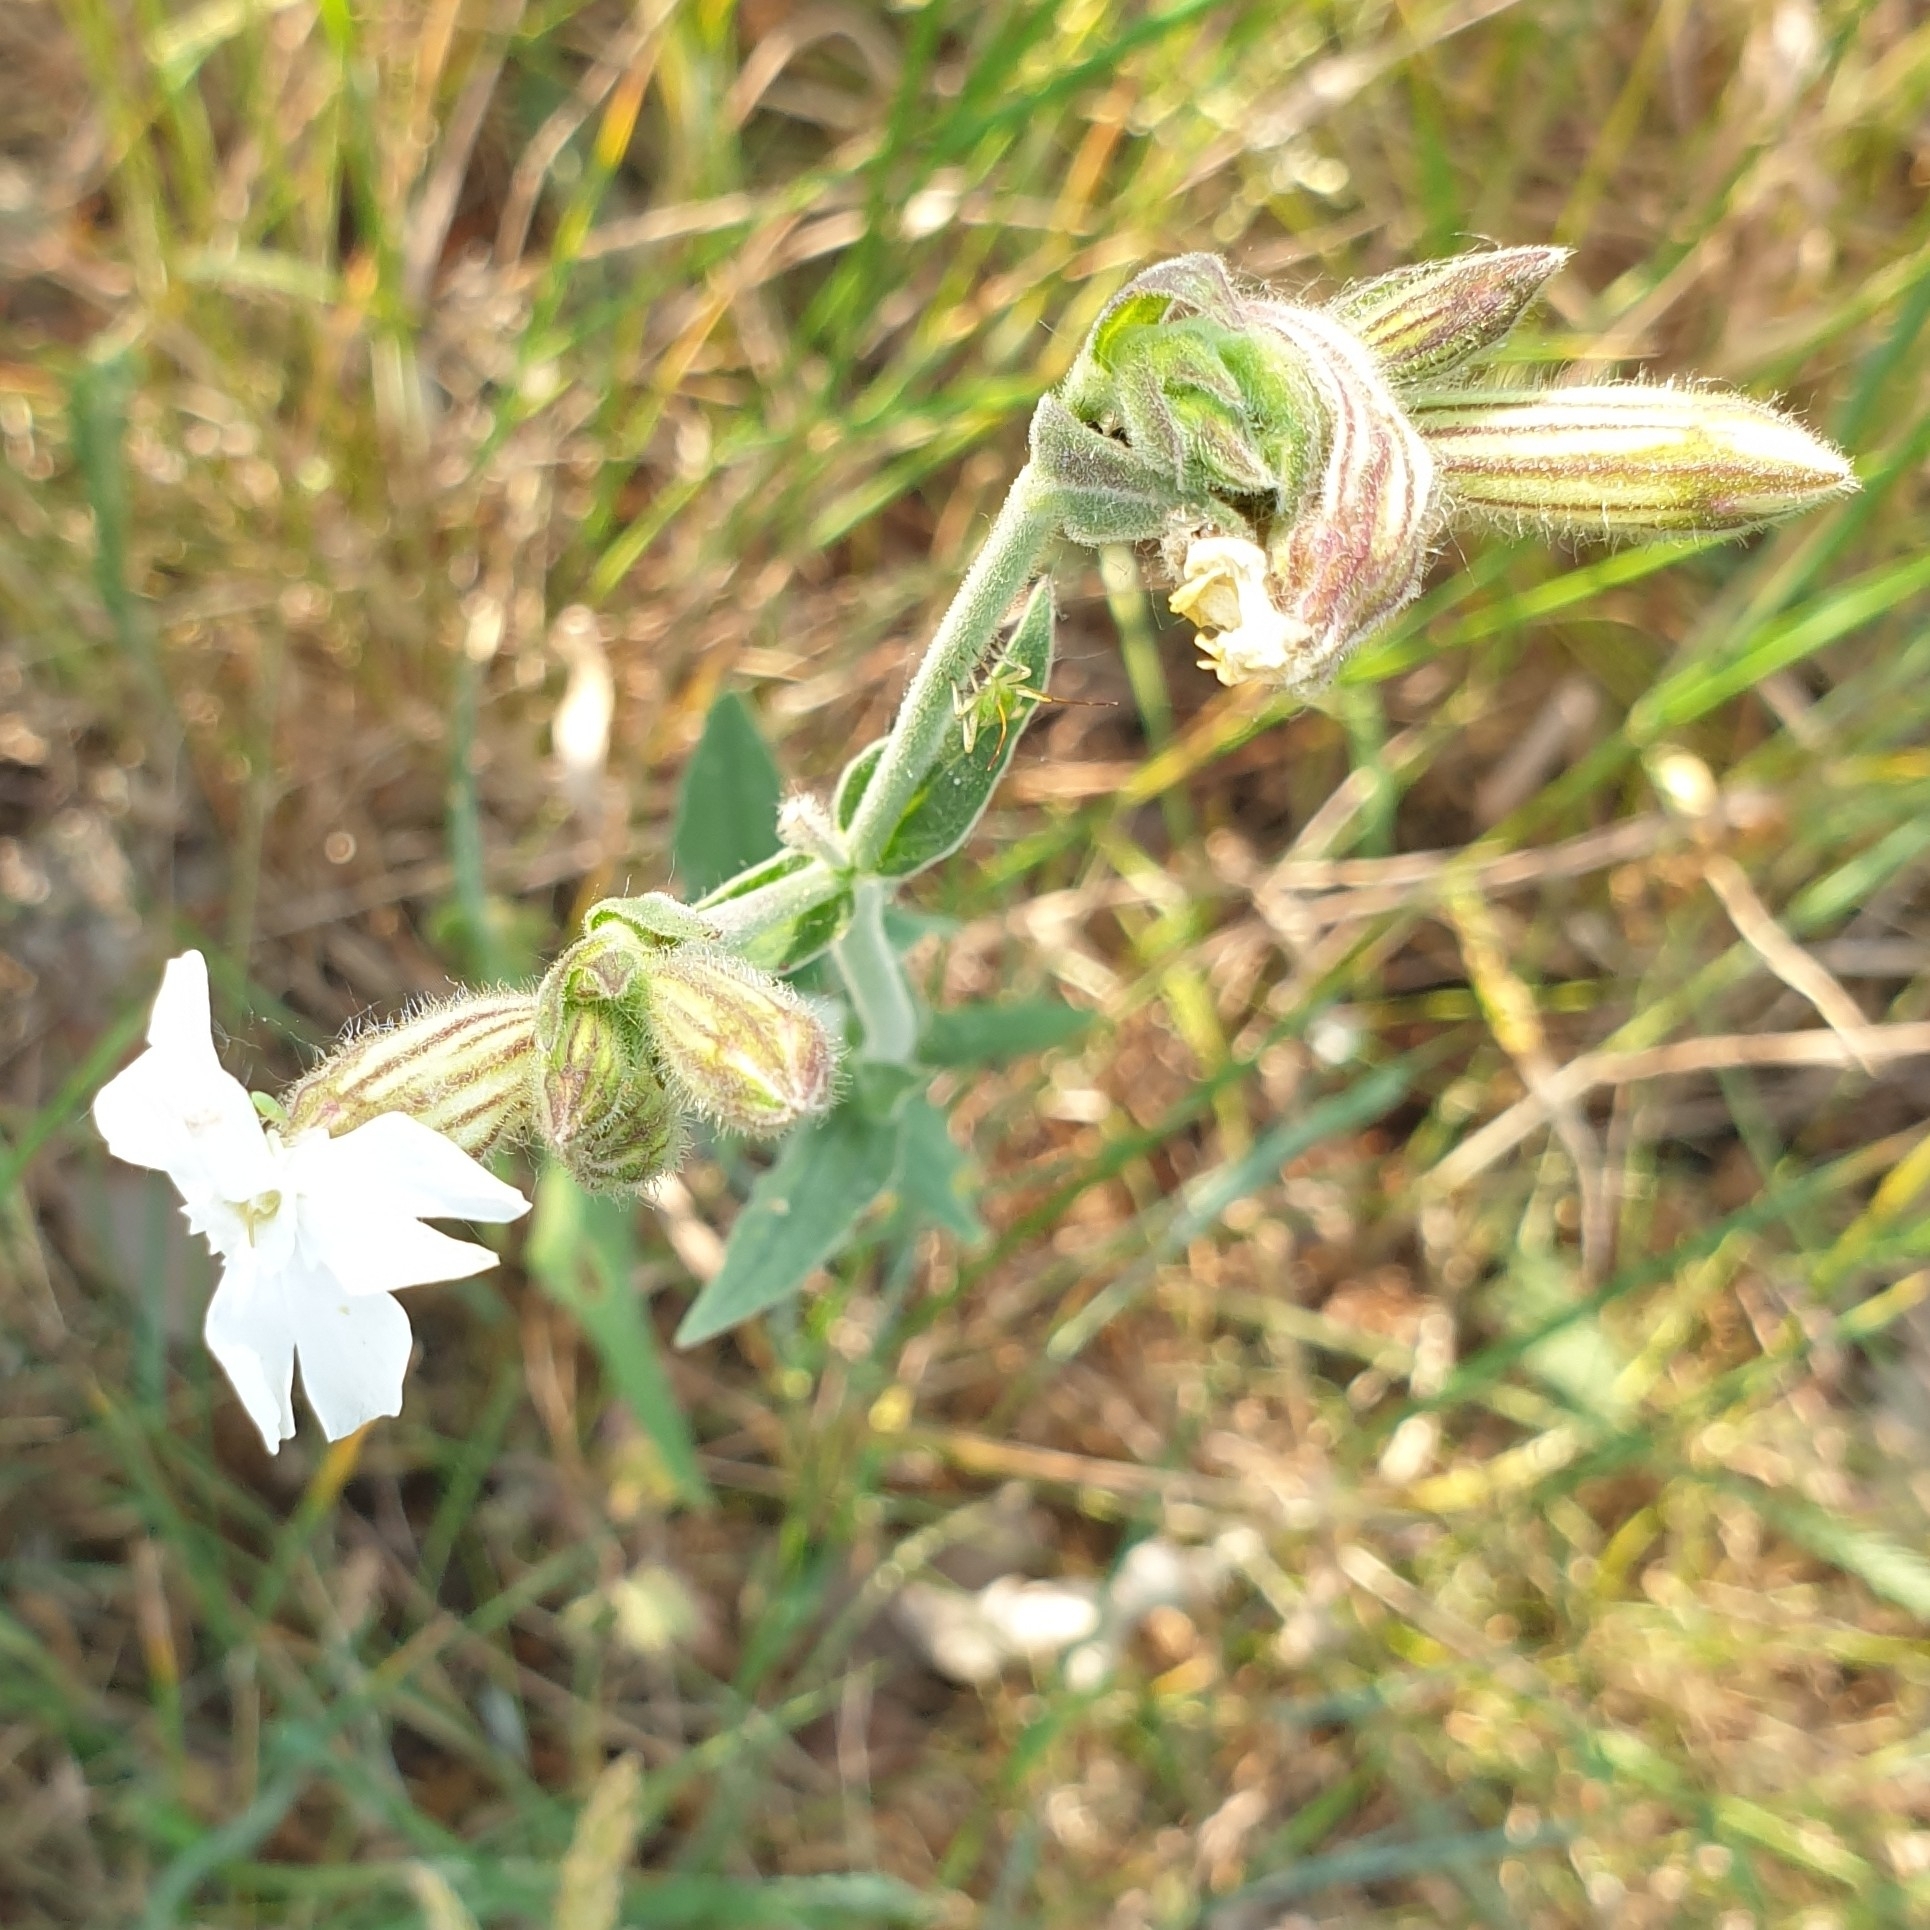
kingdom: Plantae
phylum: Tracheophyta
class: Magnoliopsida
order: Caryophyllales
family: Caryophyllaceae
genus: Silene
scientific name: Silene latifolia
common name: White campion
